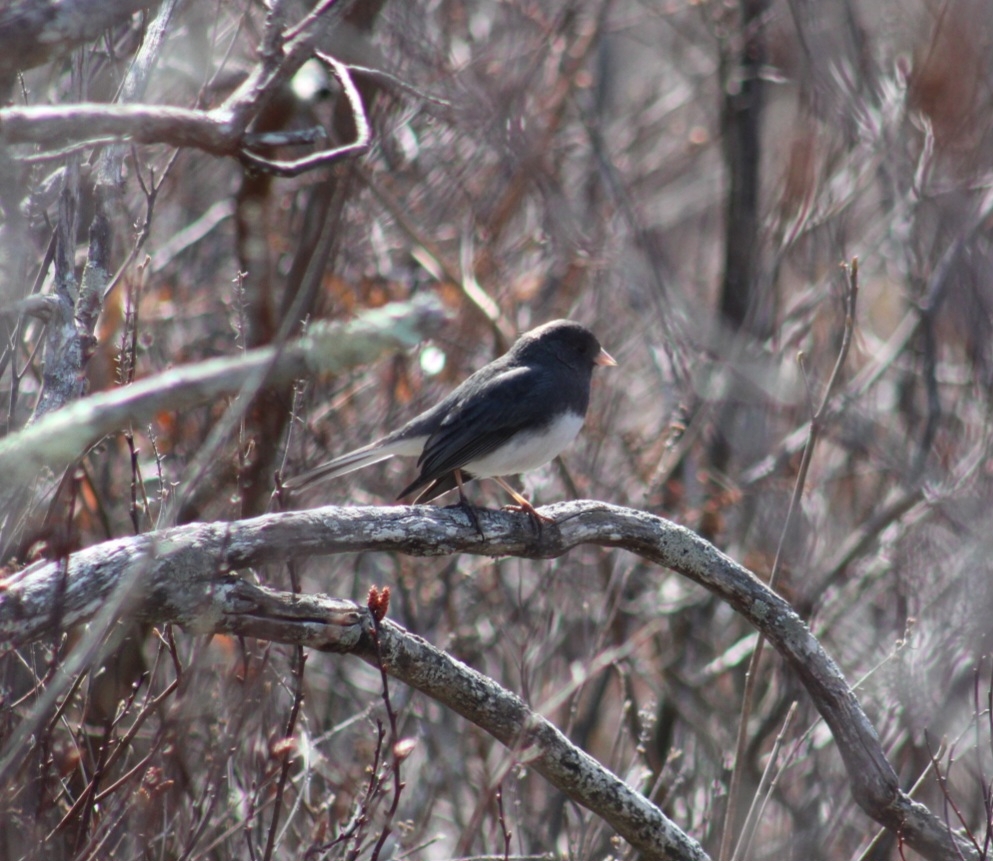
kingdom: Animalia
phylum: Chordata
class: Aves
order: Passeriformes
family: Passerellidae
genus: Junco
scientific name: Junco hyemalis
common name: Dark-eyed junco
